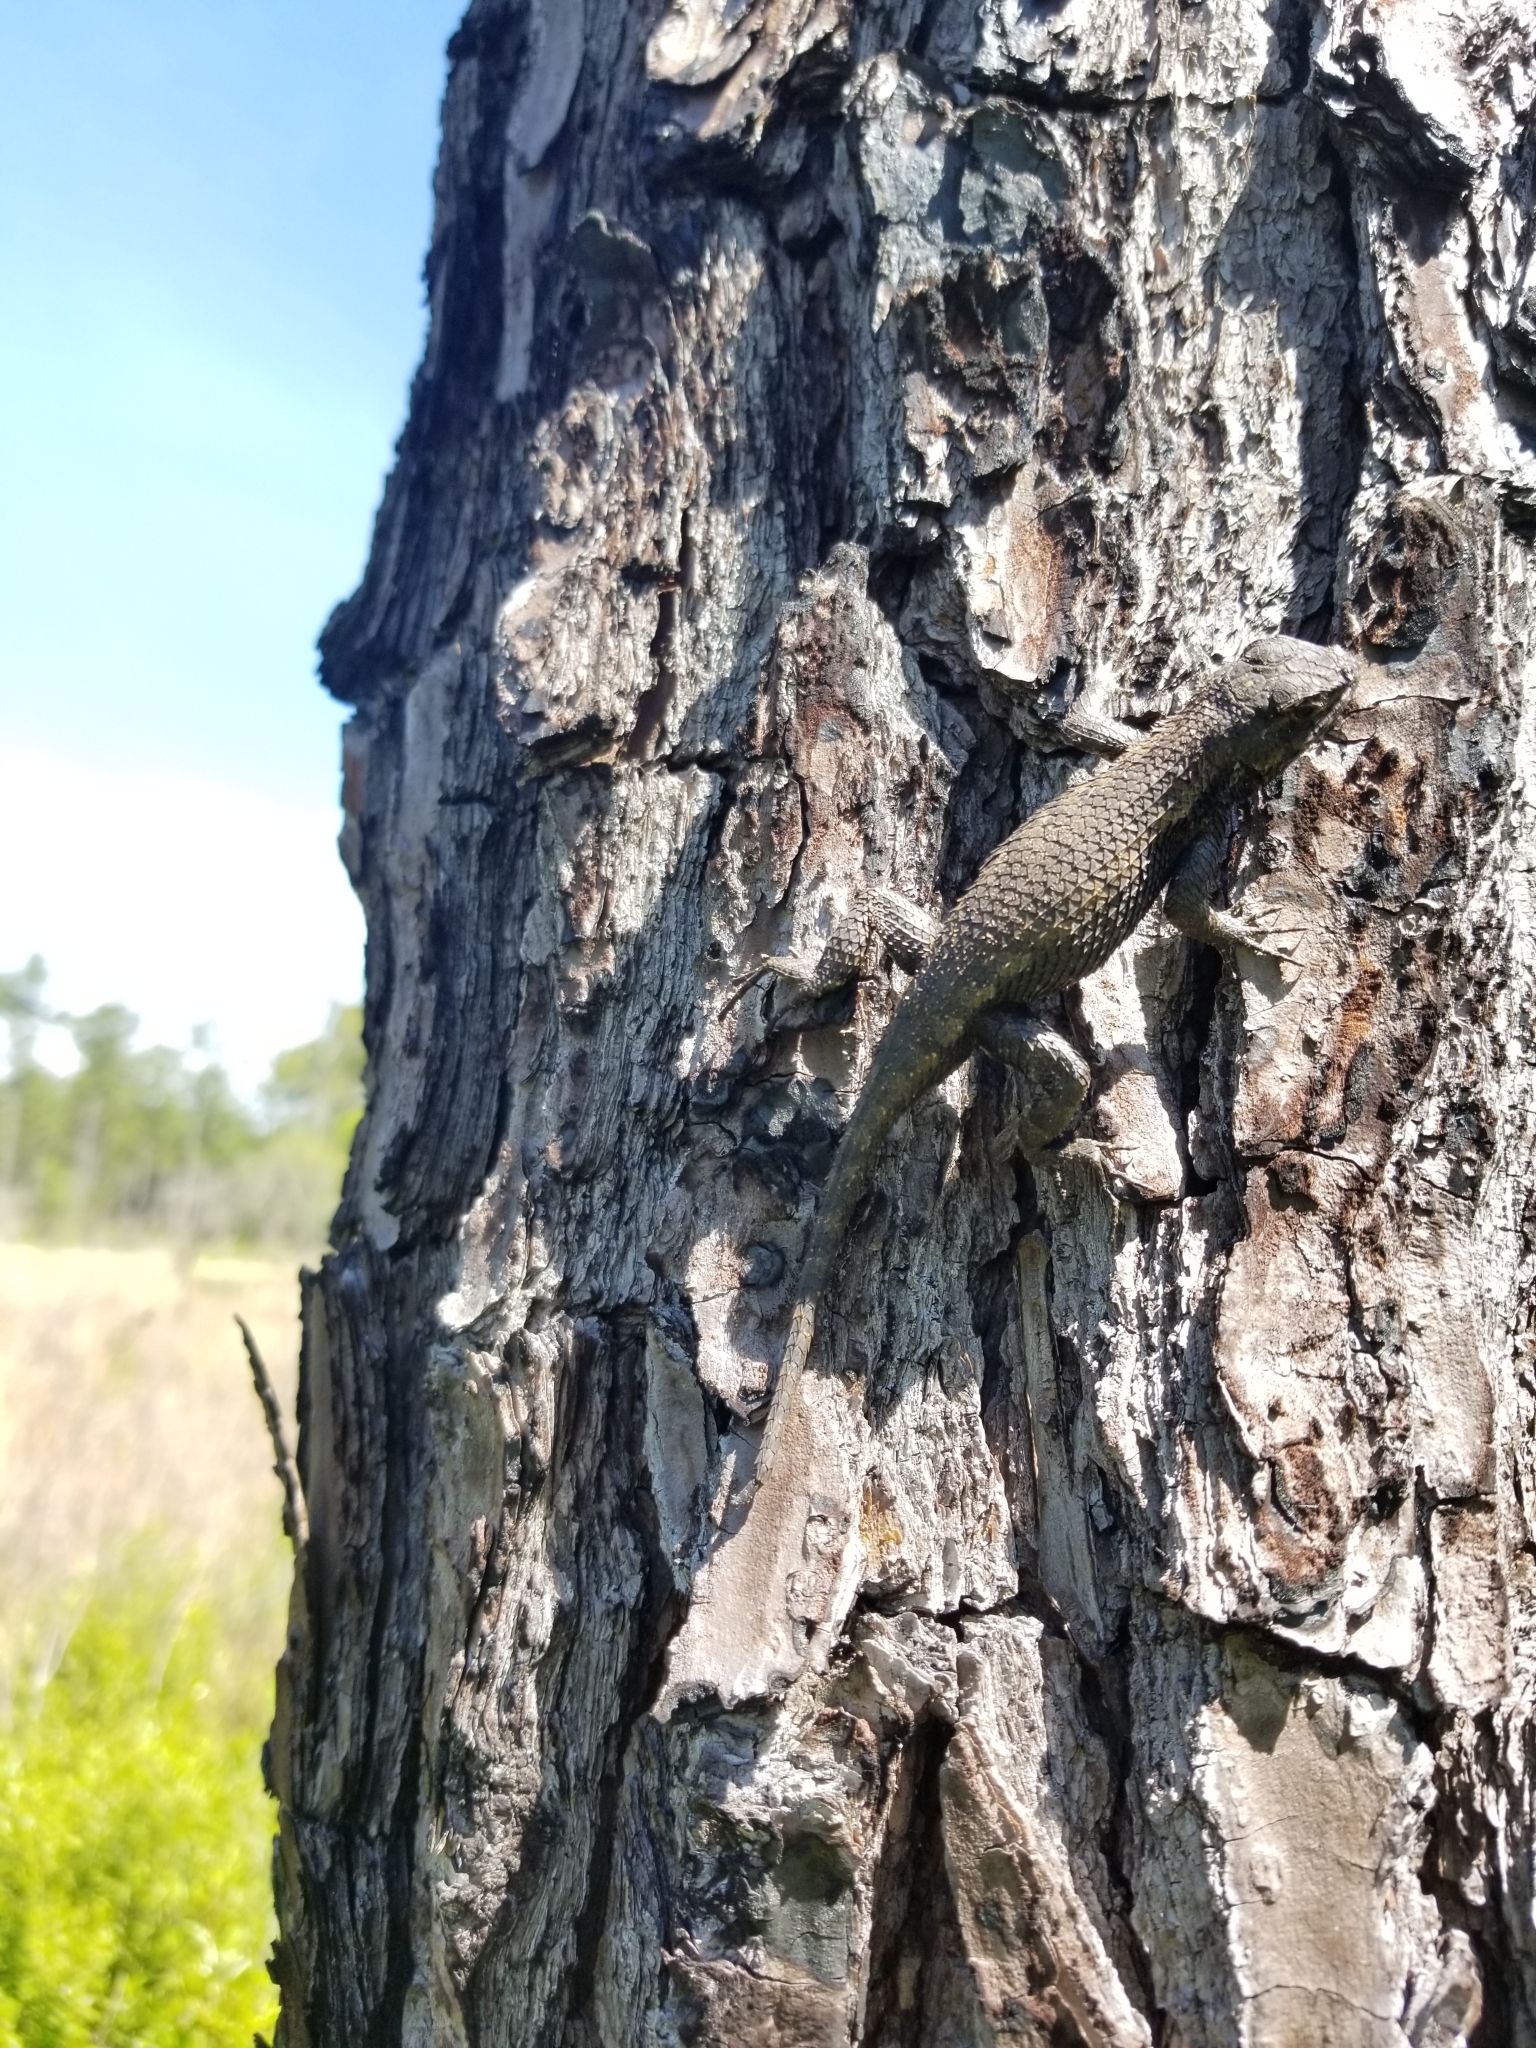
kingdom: Animalia
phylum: Chordata
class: Squamata
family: Phrynosomatidae
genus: Sceloporus
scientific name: Sceloporus undulatus
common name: Eastern fence lizard
